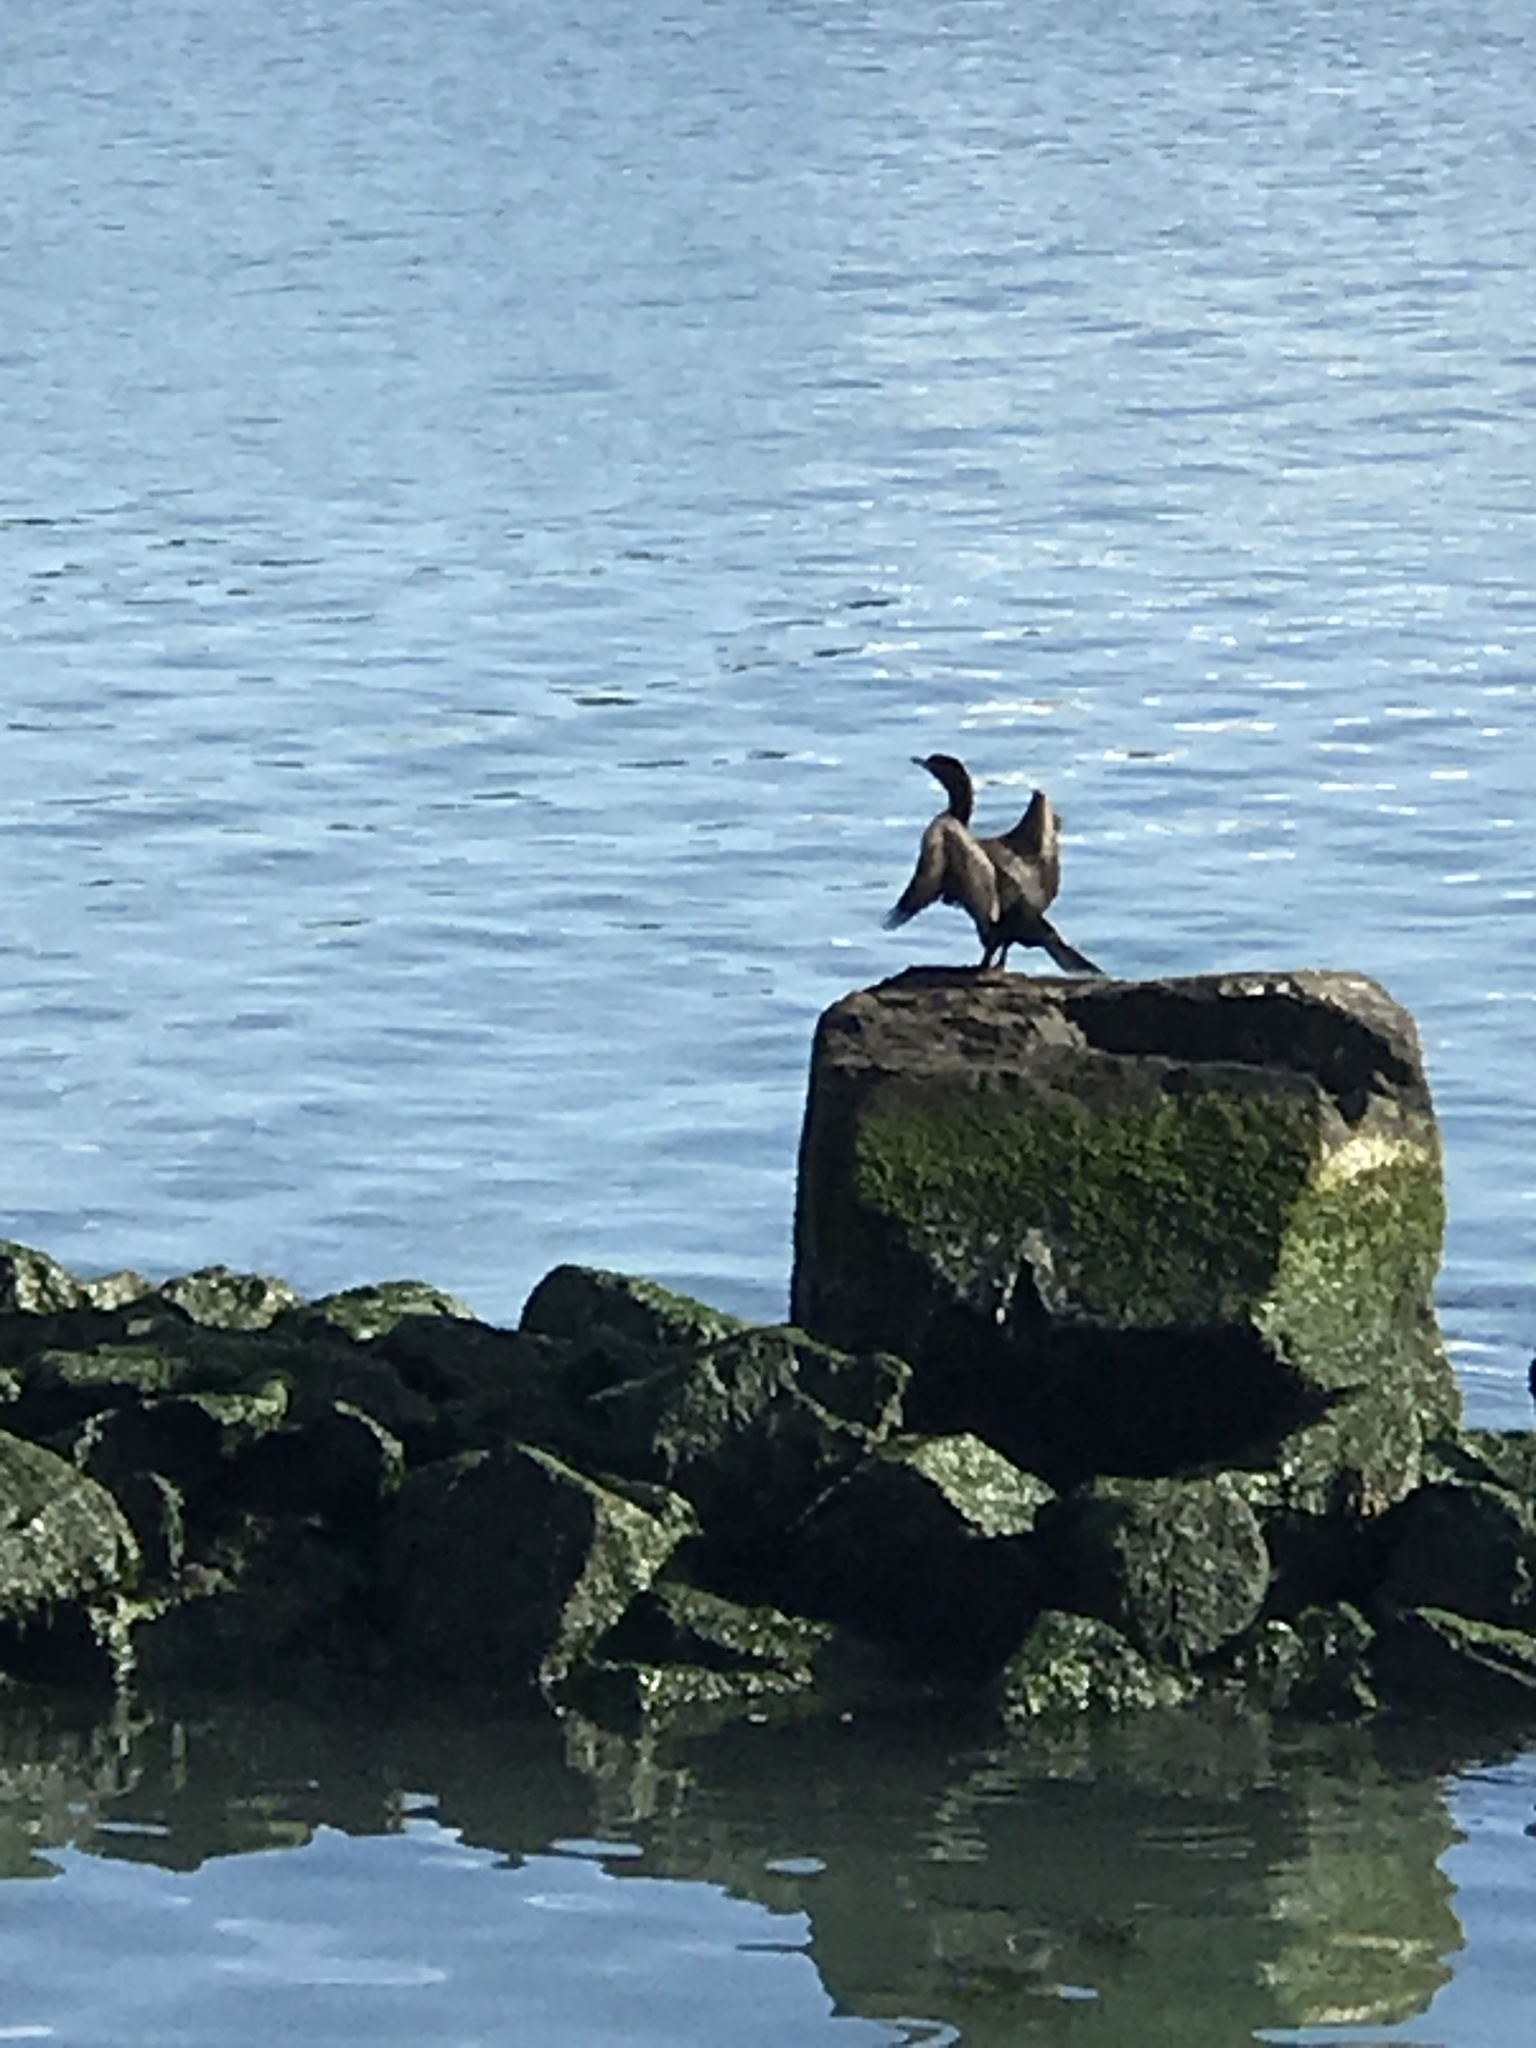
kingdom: Animalia
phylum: Chordata
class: Aves
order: Suliformes
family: Phalacrocoracidae
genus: Phalacrocorax
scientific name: Phalacrocorax auritus
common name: Double-crested cormorant
